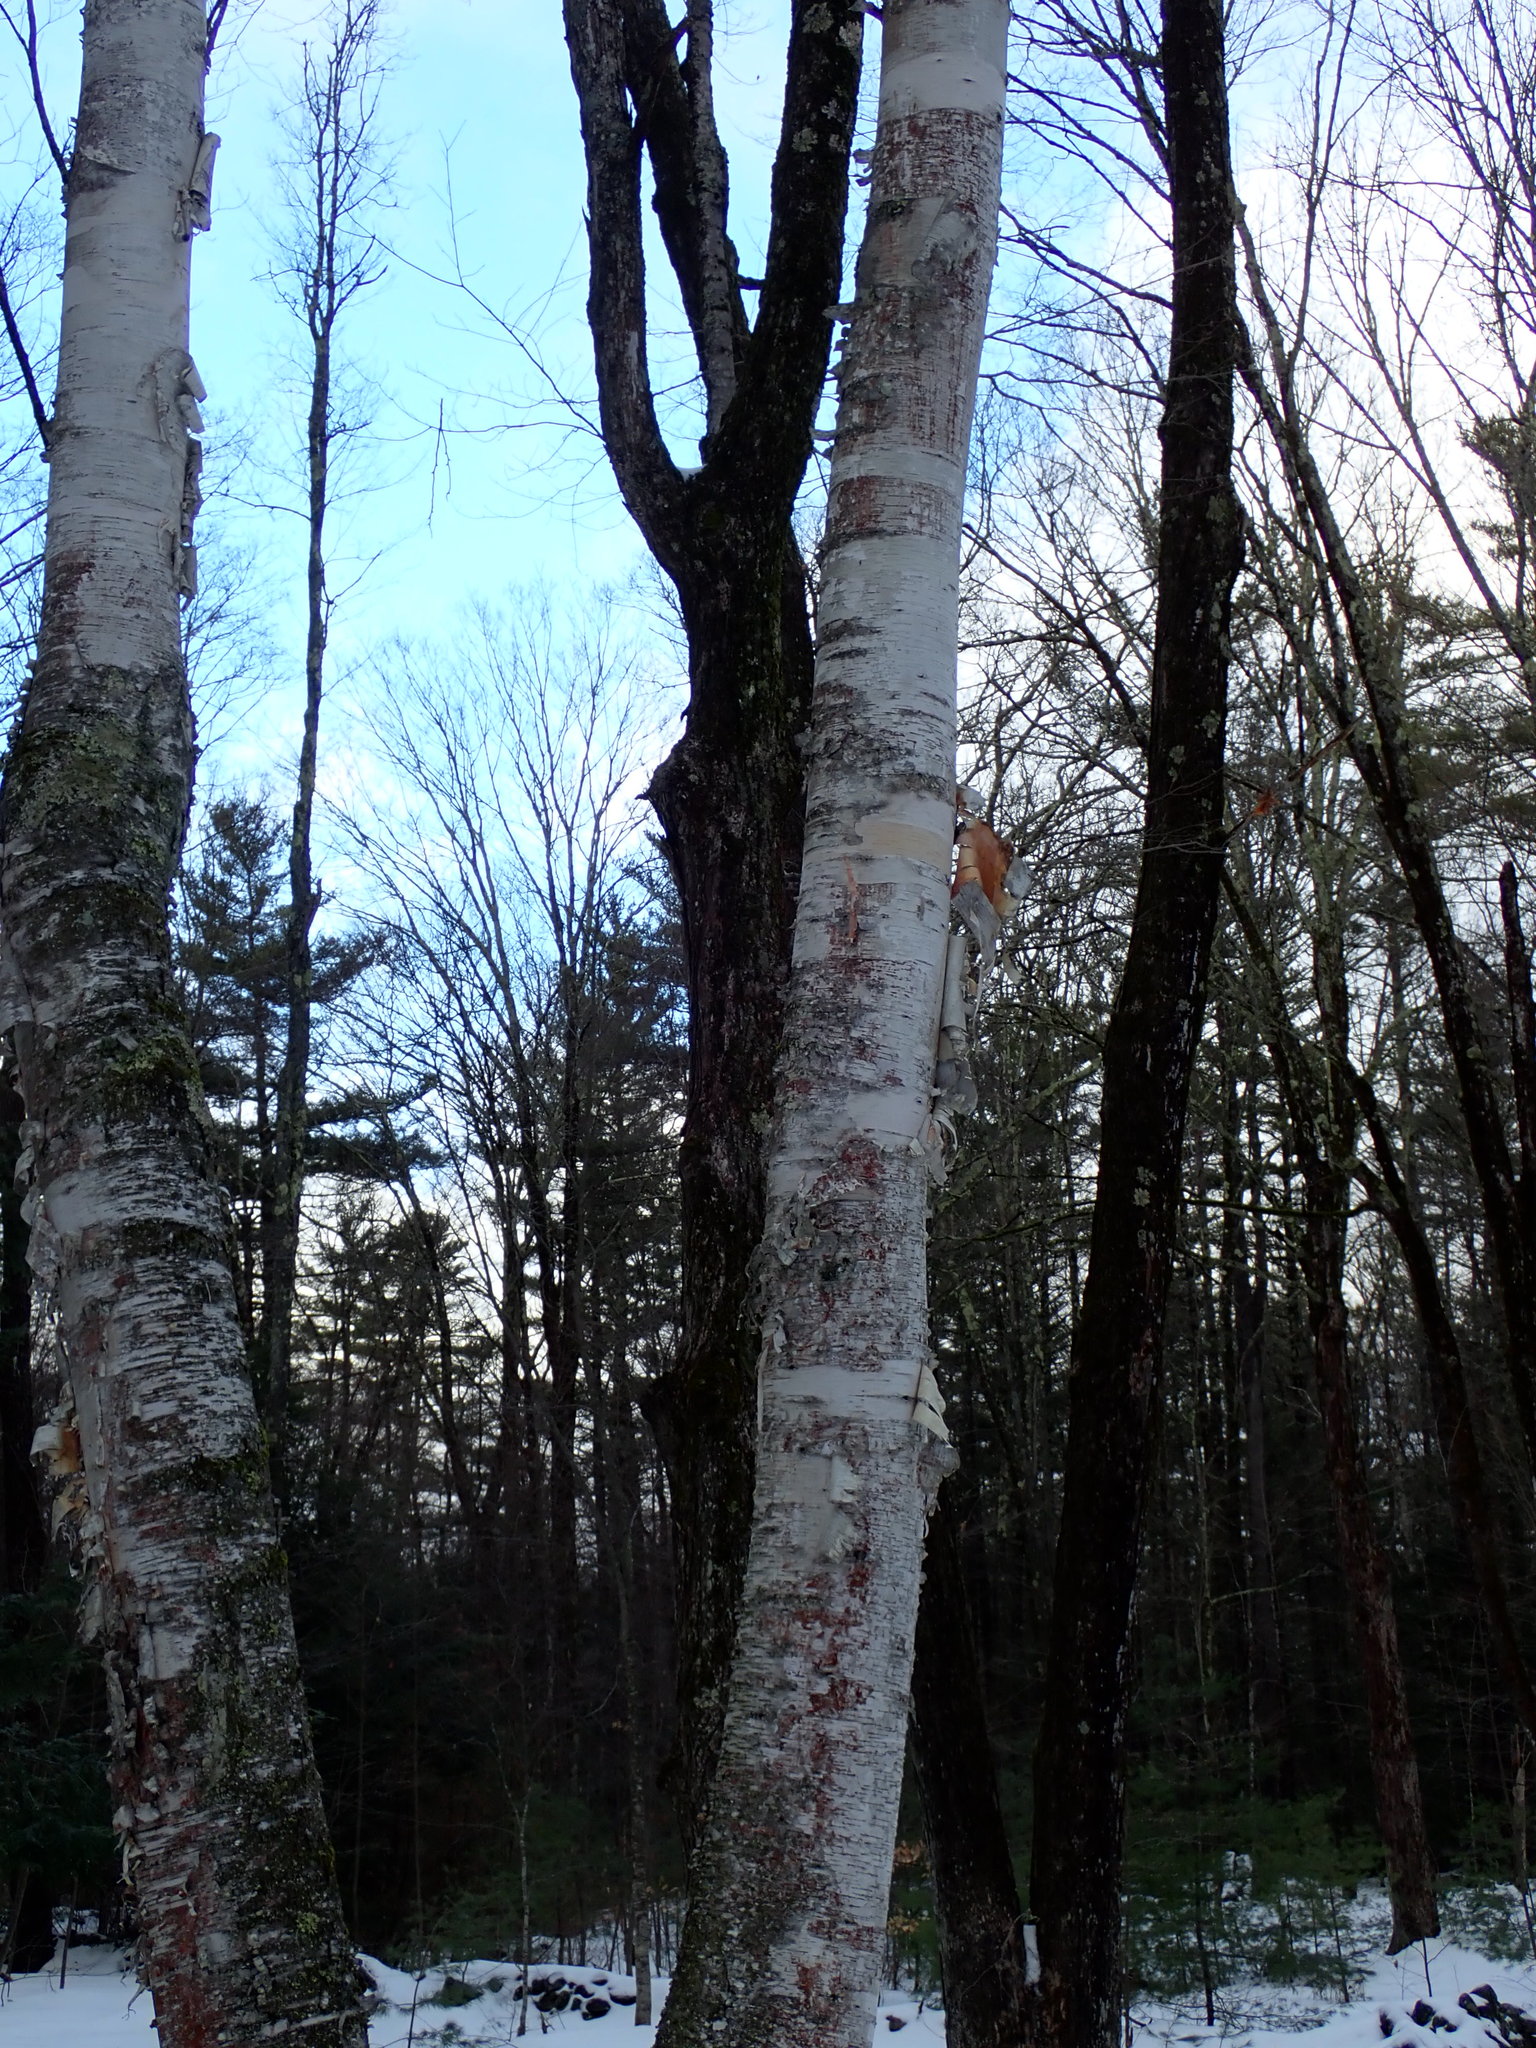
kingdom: Plantae
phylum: Tracheophyta
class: Magnoliopsida
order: Fagales
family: Betulaceae
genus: Betula
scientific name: Betula papyrifera
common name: Paper birch
